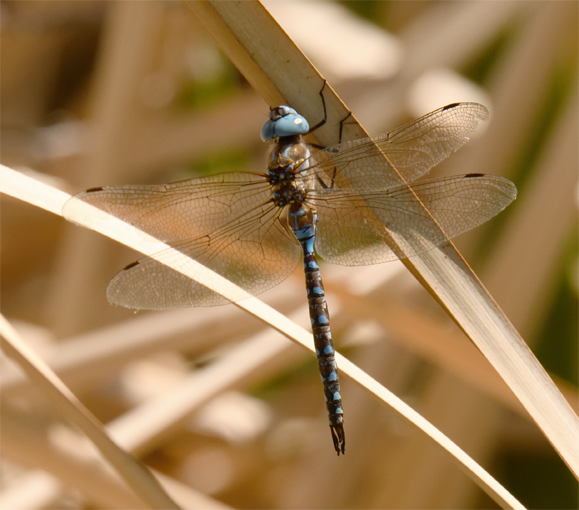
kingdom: Animalia
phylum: Arthropoda
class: Insecta
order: Odonata
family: Aeshnidae
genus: Rhionaeschna
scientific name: Rhionaeschna multicolor
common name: Blue-eyed darner
